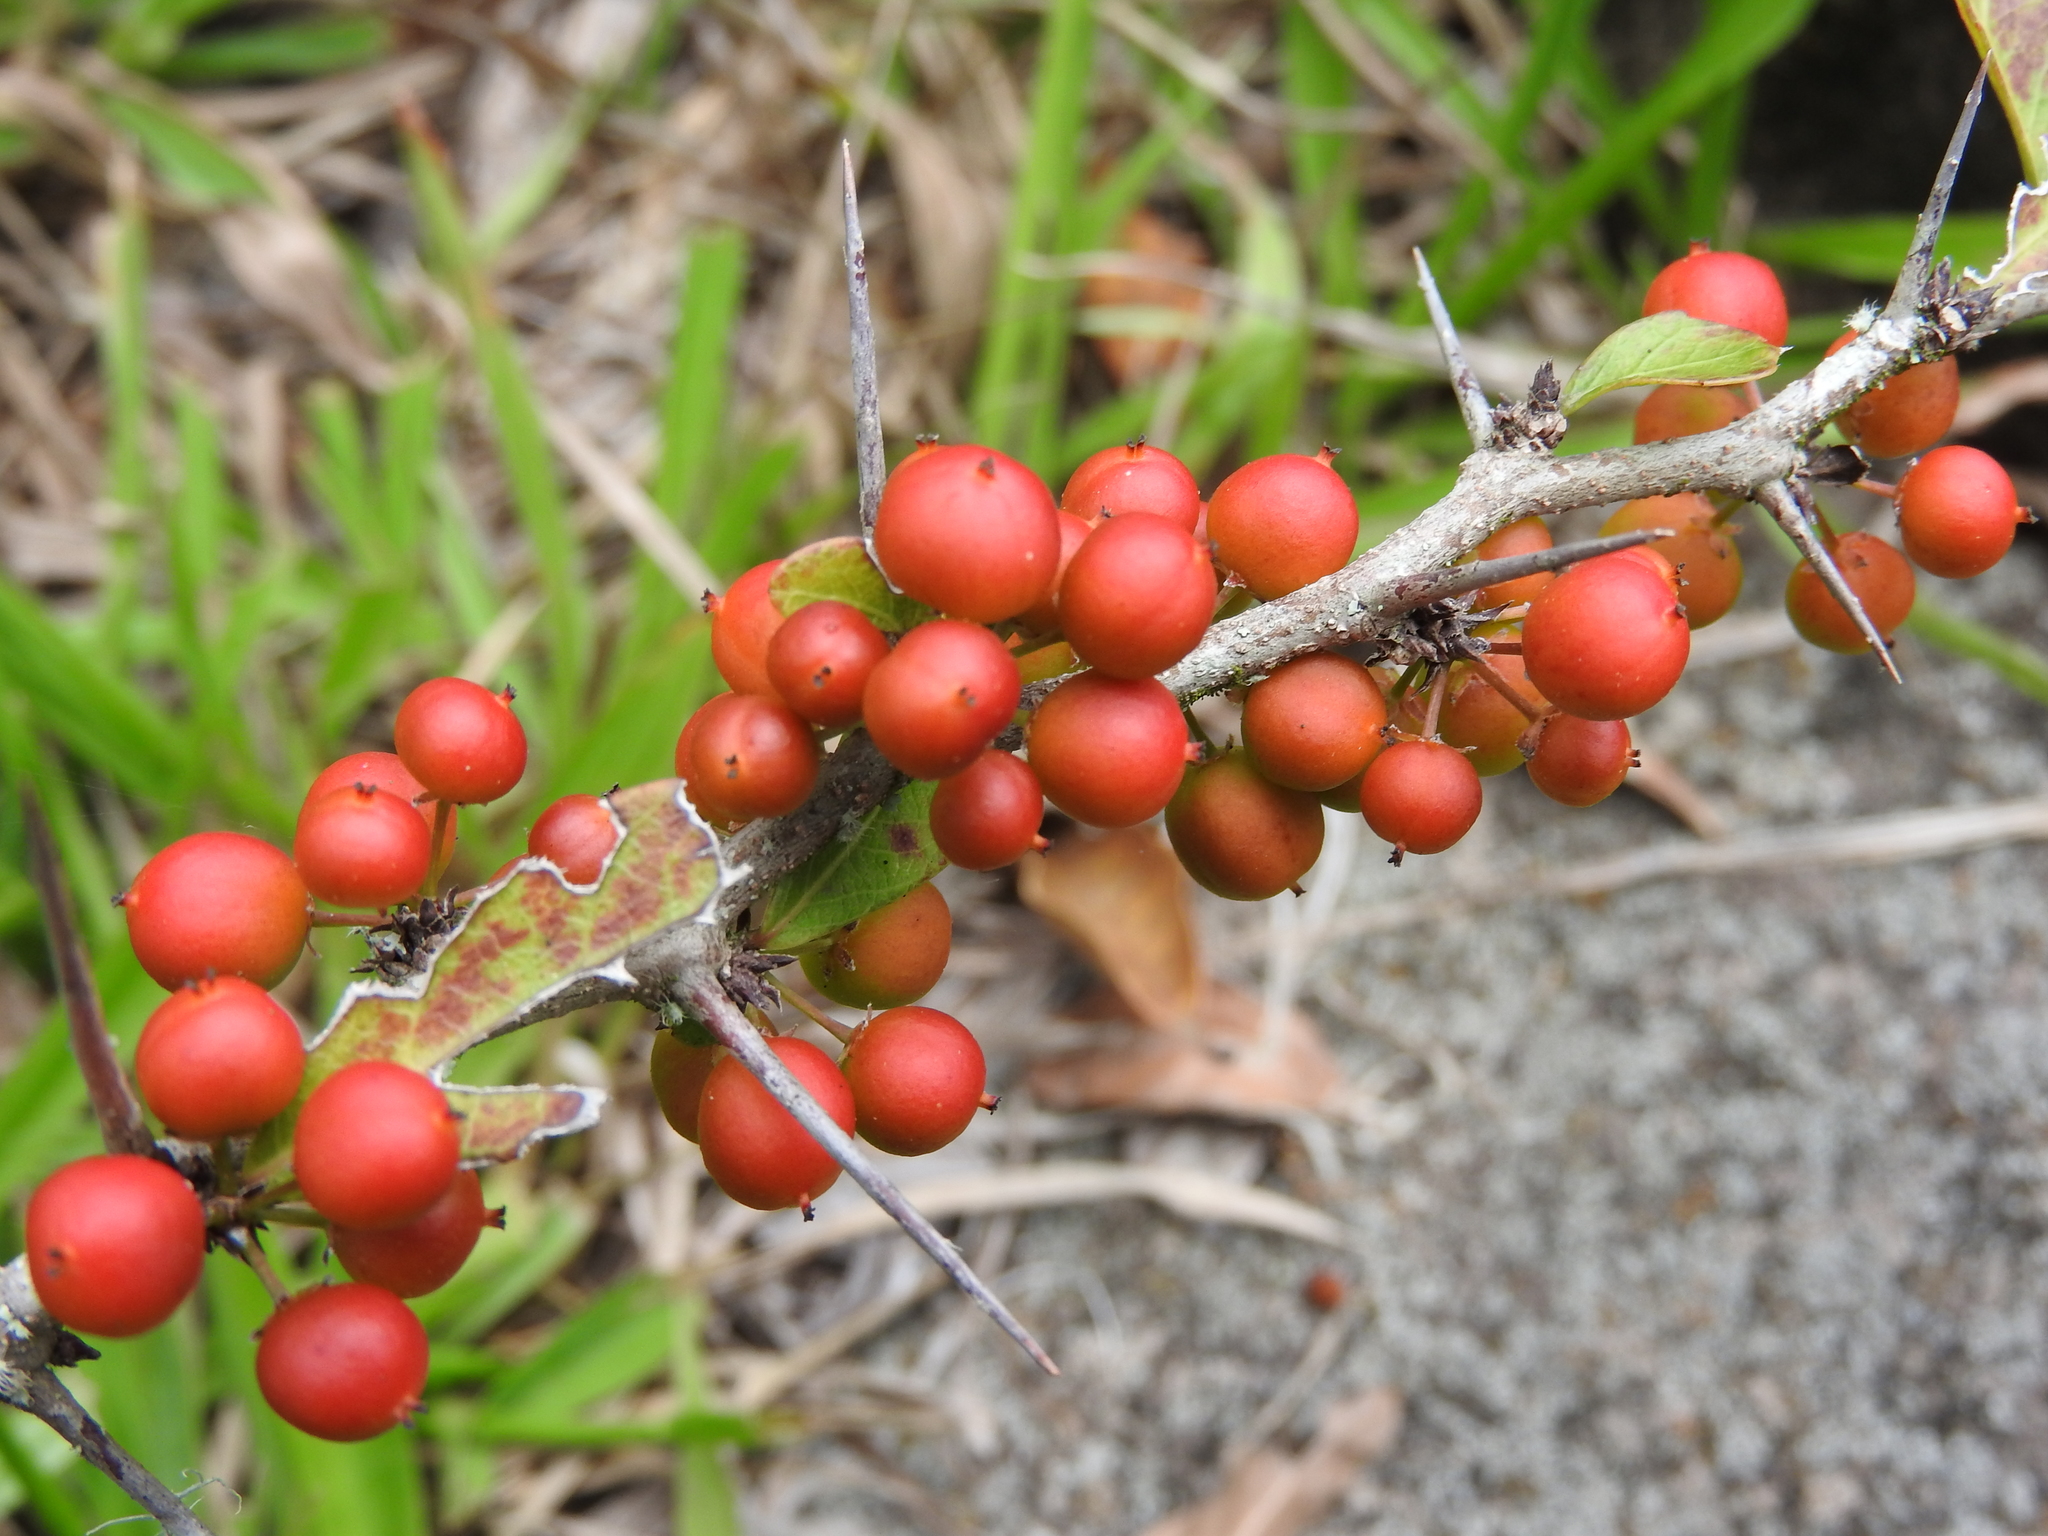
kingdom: Plantae
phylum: Tracheophyta
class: Magnoliopsida
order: Malpighiales
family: Salicaceae
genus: Xylosma
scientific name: Xylosma flexuosa
